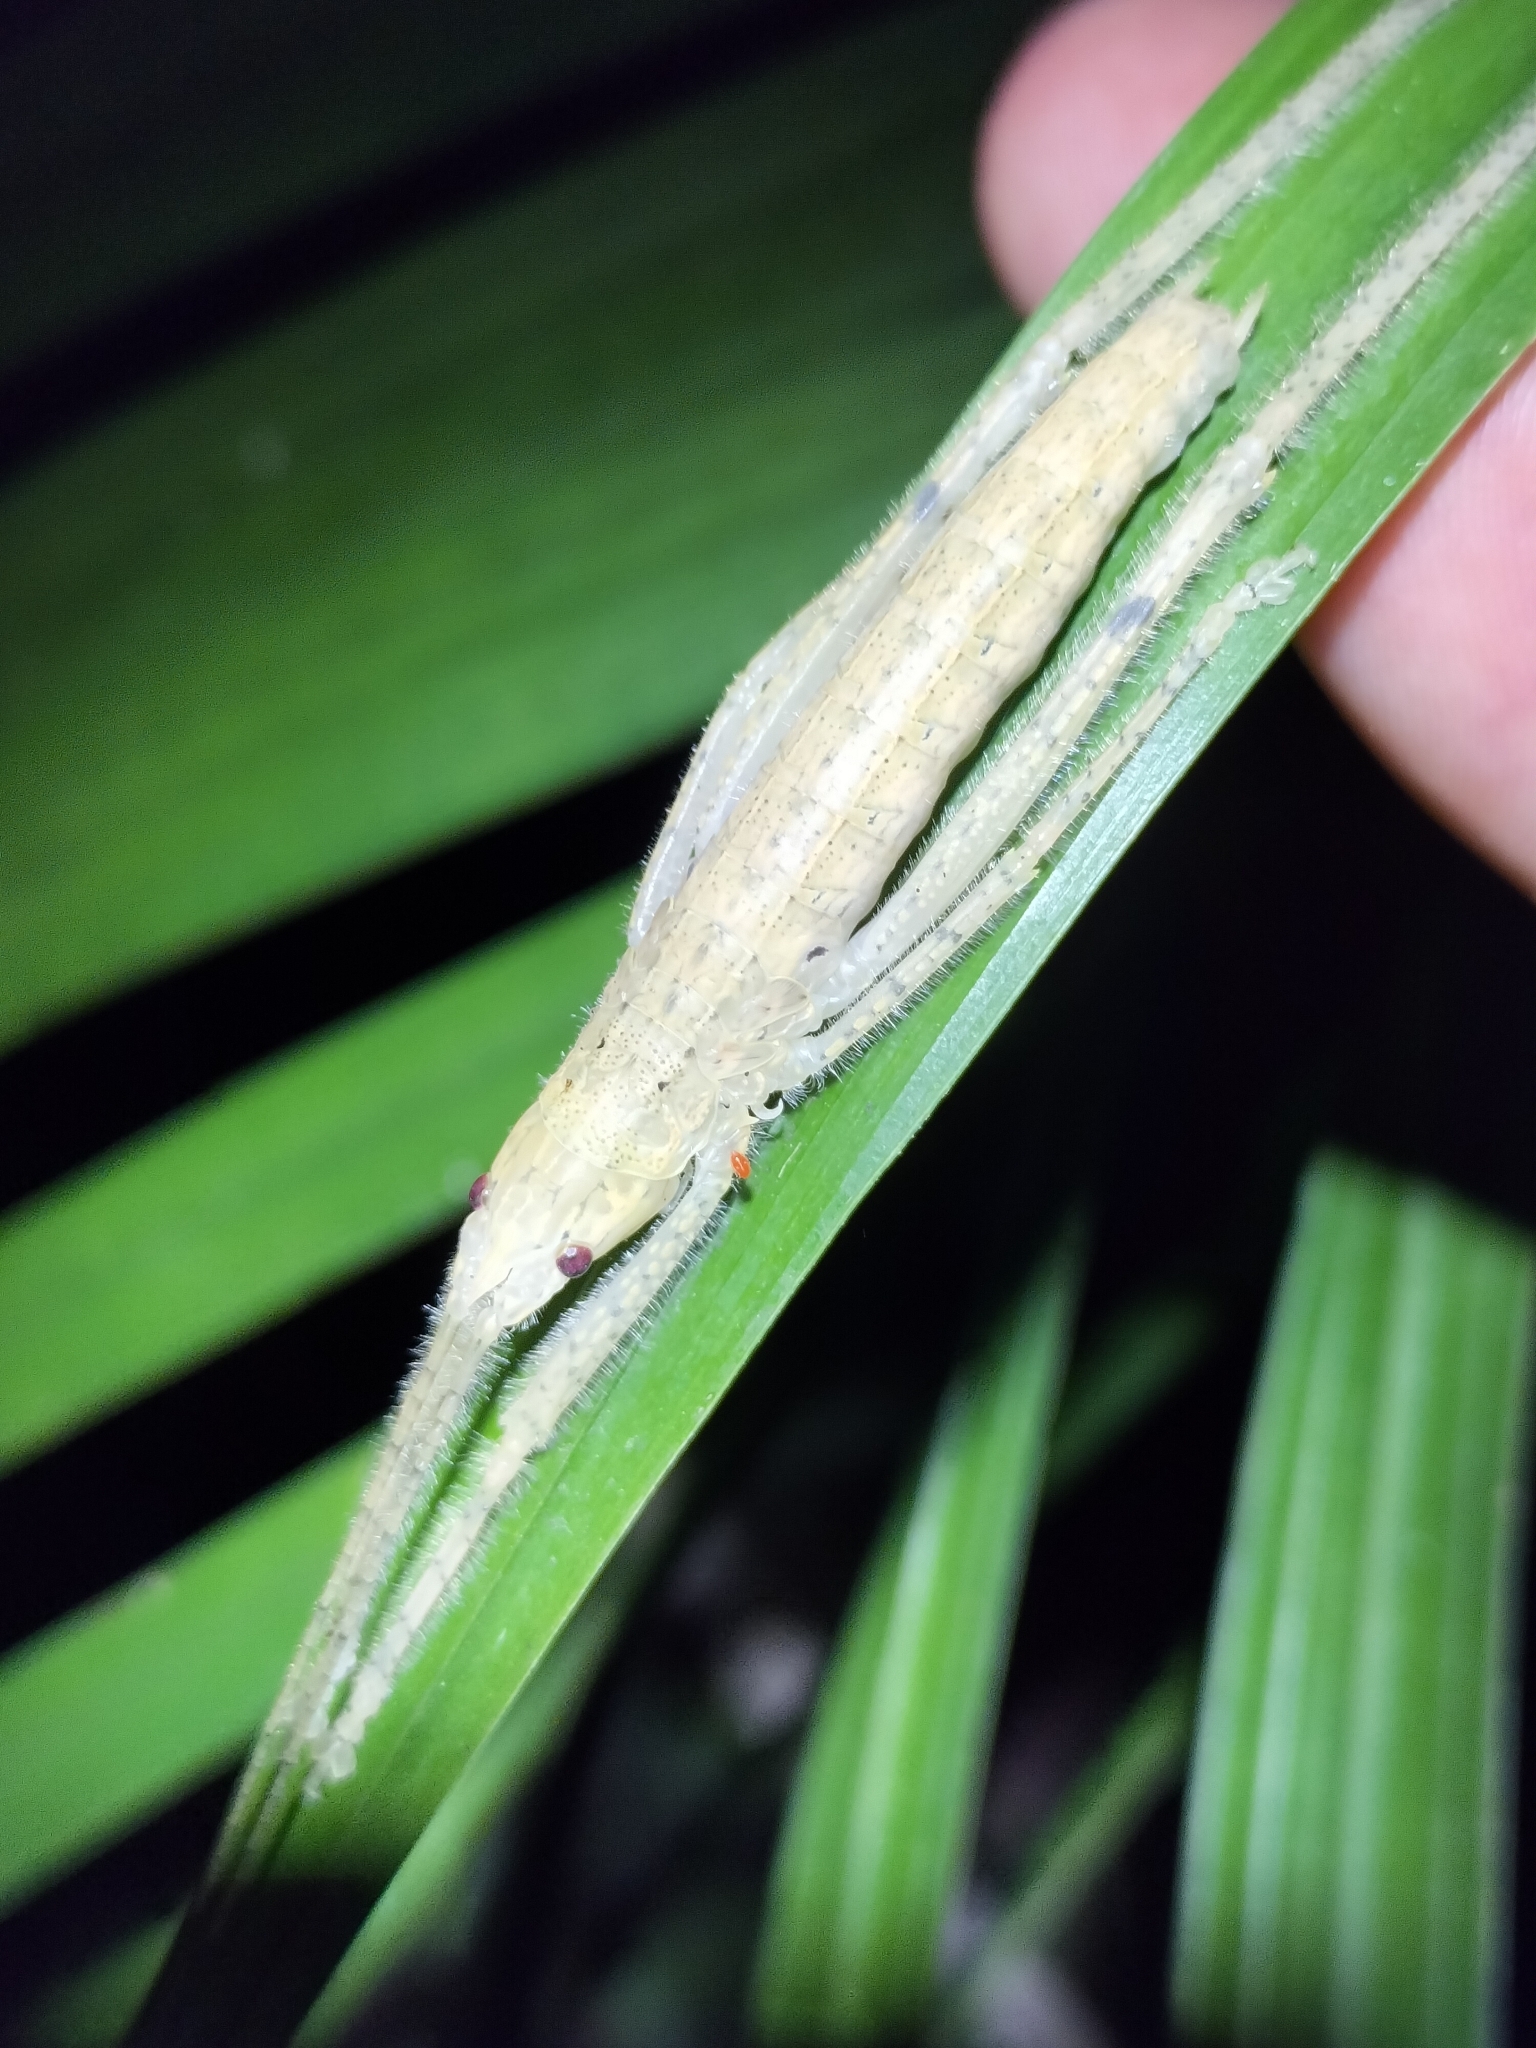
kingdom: Animalia
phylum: Arthropoda
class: Insecta
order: Orthoptera
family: Tettigoniidae
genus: Segestidea
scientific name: Segestidea queenslandica
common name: Queensland palm katydid
